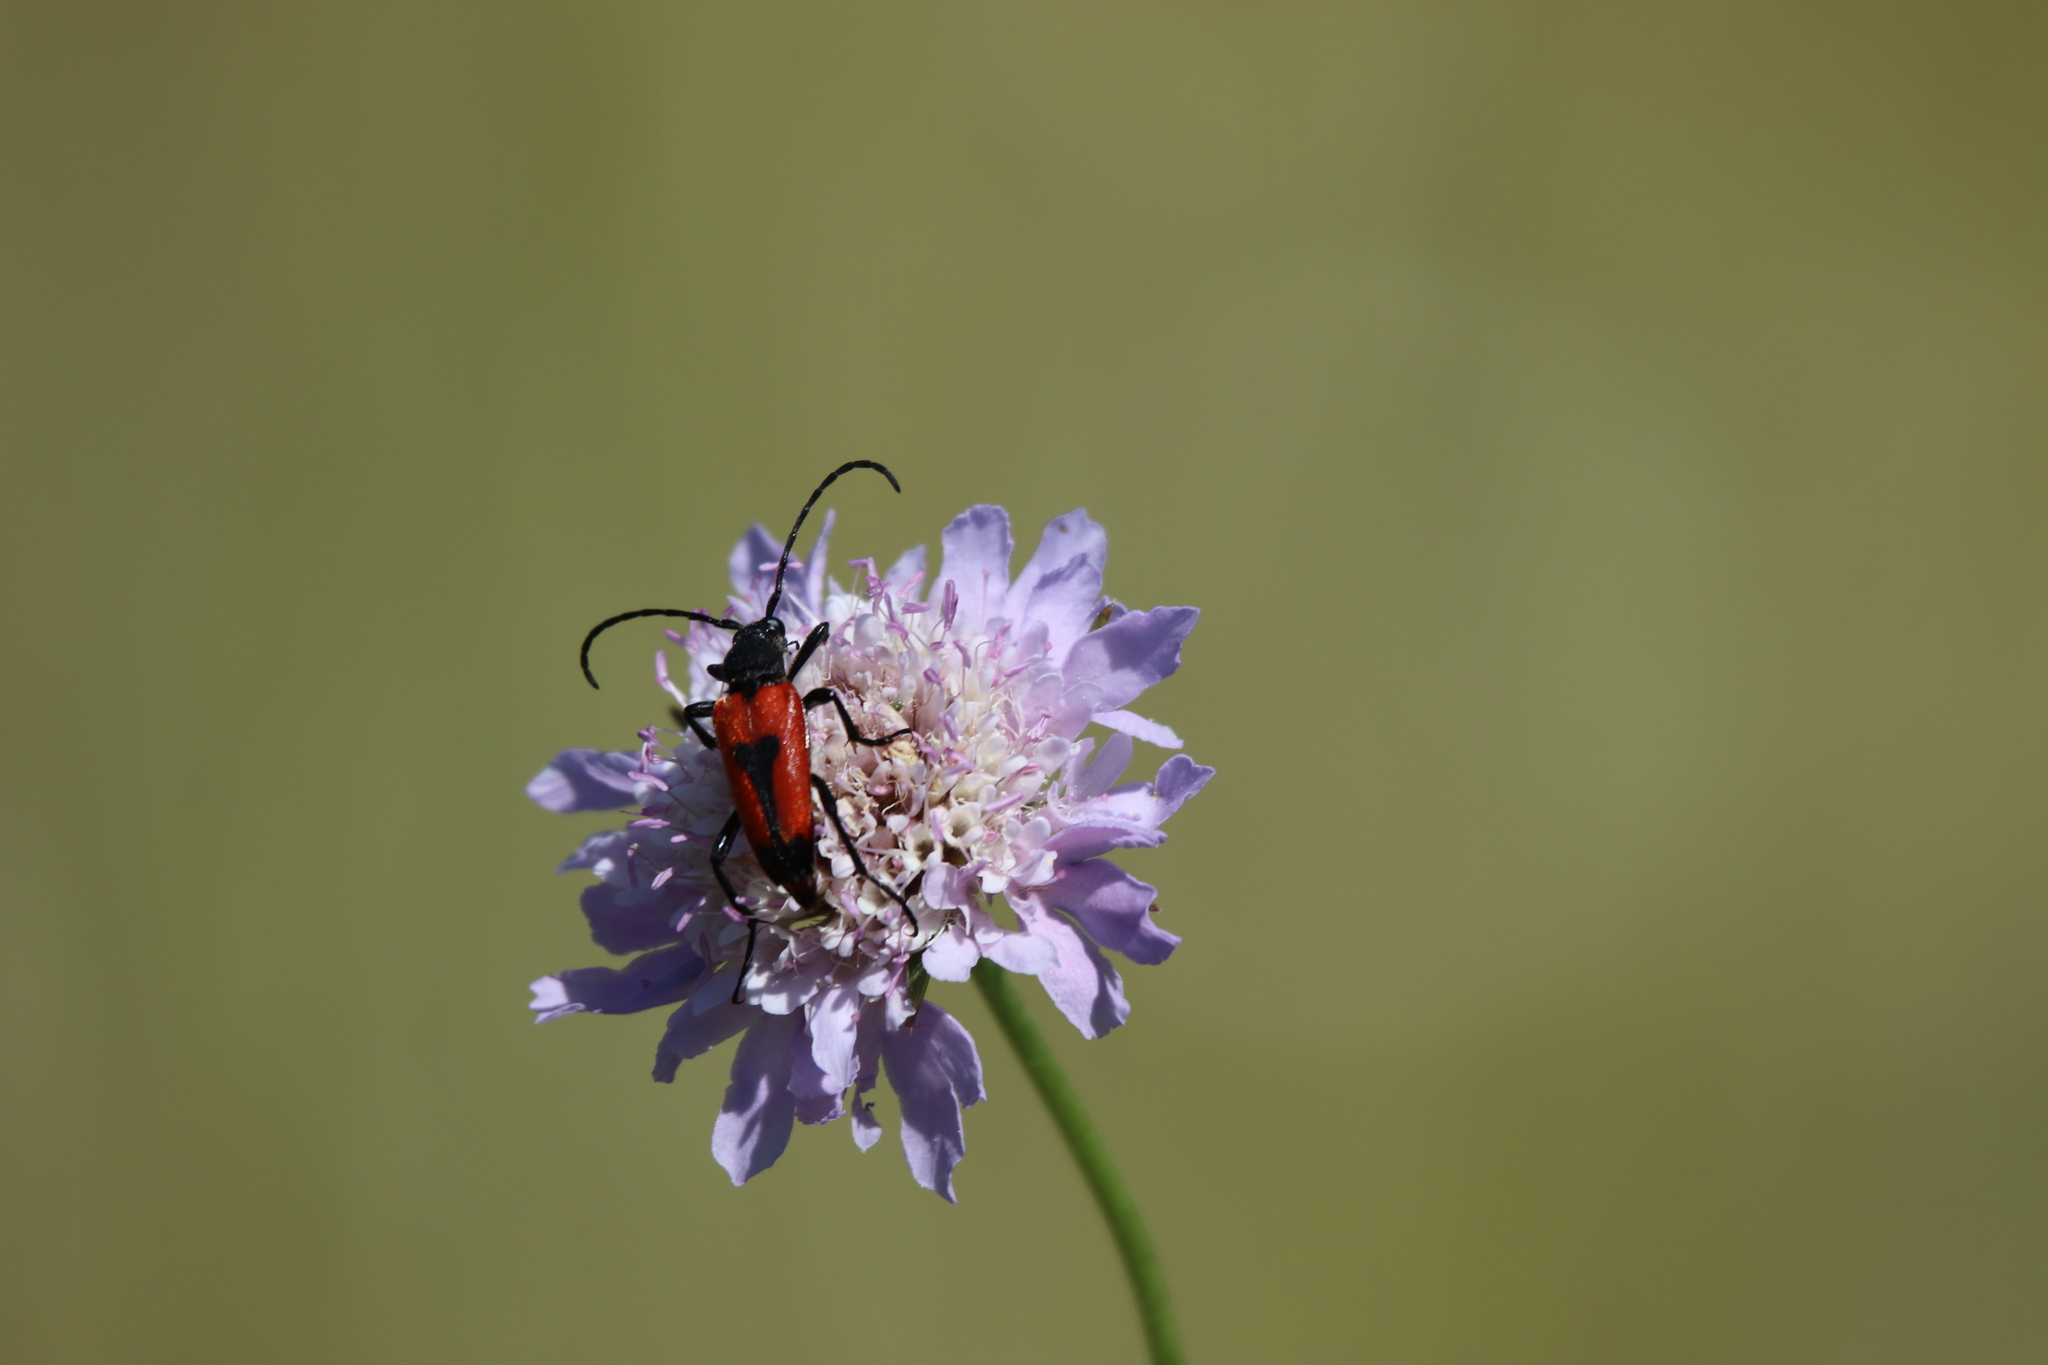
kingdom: Animalia
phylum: Arthropoda
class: Insecta
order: Coleoptera
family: Cerambycidae
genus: Stictoleptura
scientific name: Stictoleptura cordigera
